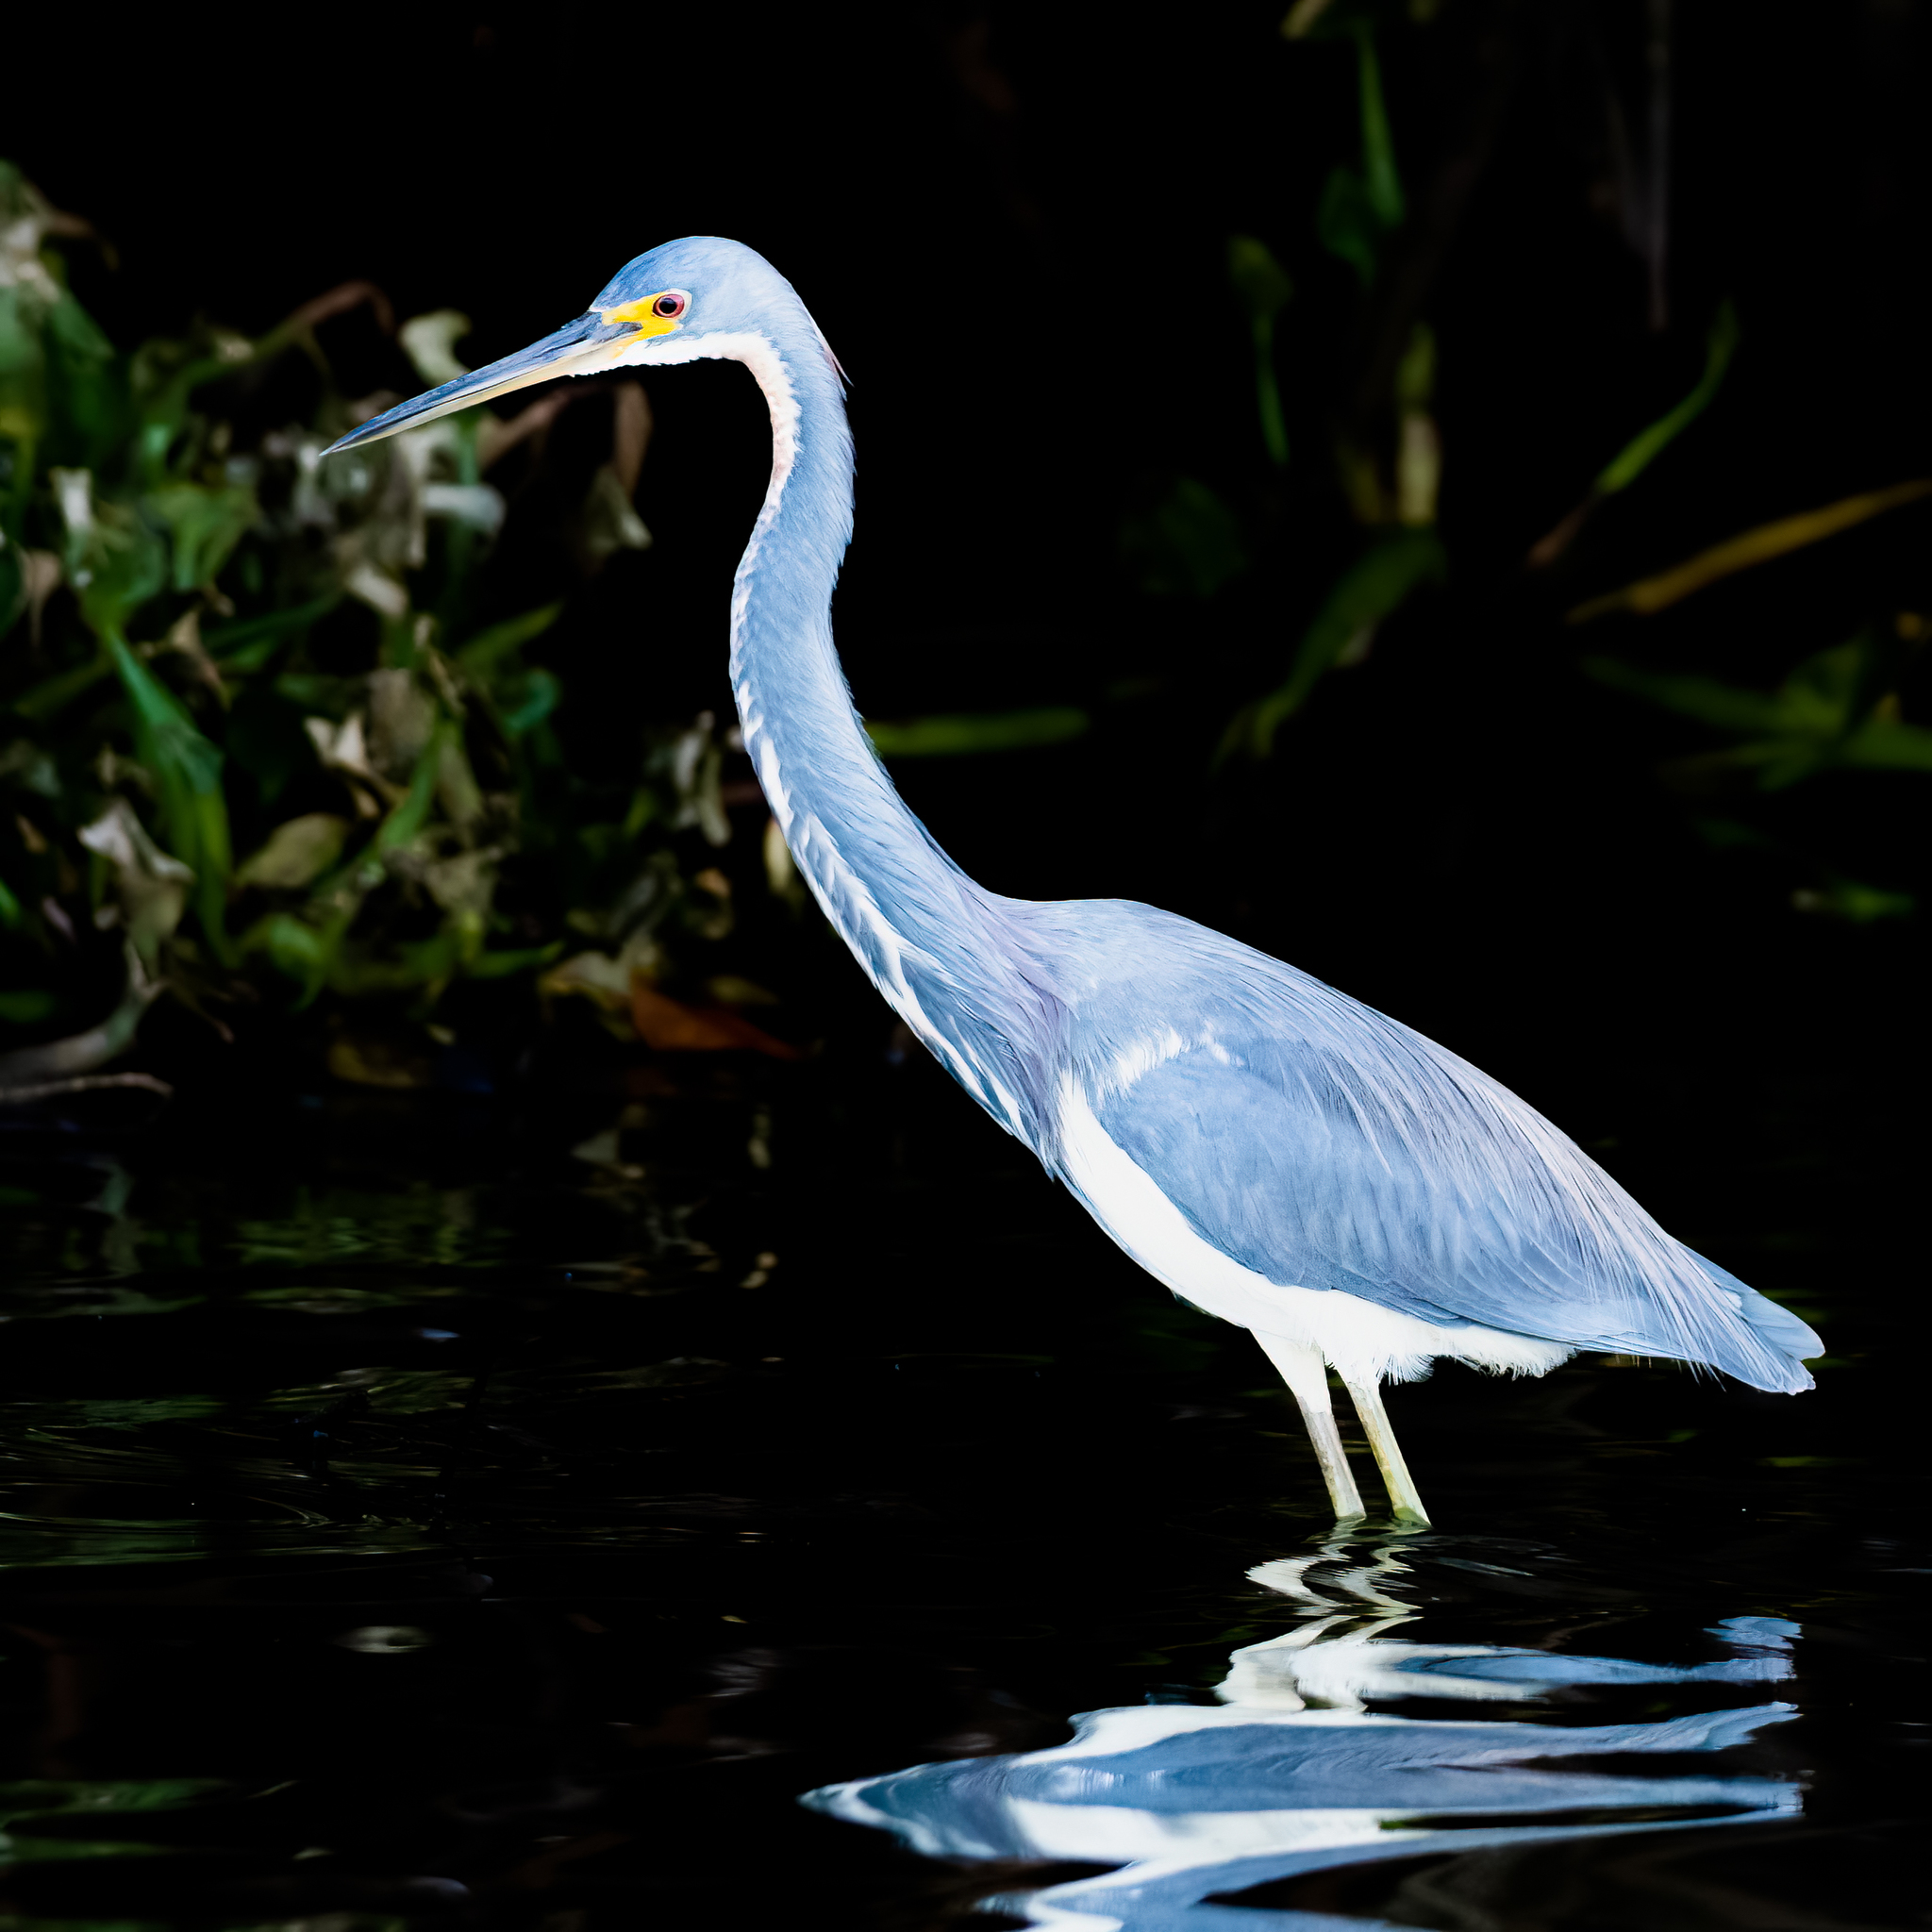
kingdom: Animalia
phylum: Chordata
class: Aves
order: Pelecaniformes
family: Ardeidae
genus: Egretta
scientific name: Egretta tricolor
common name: Tricolored heron
